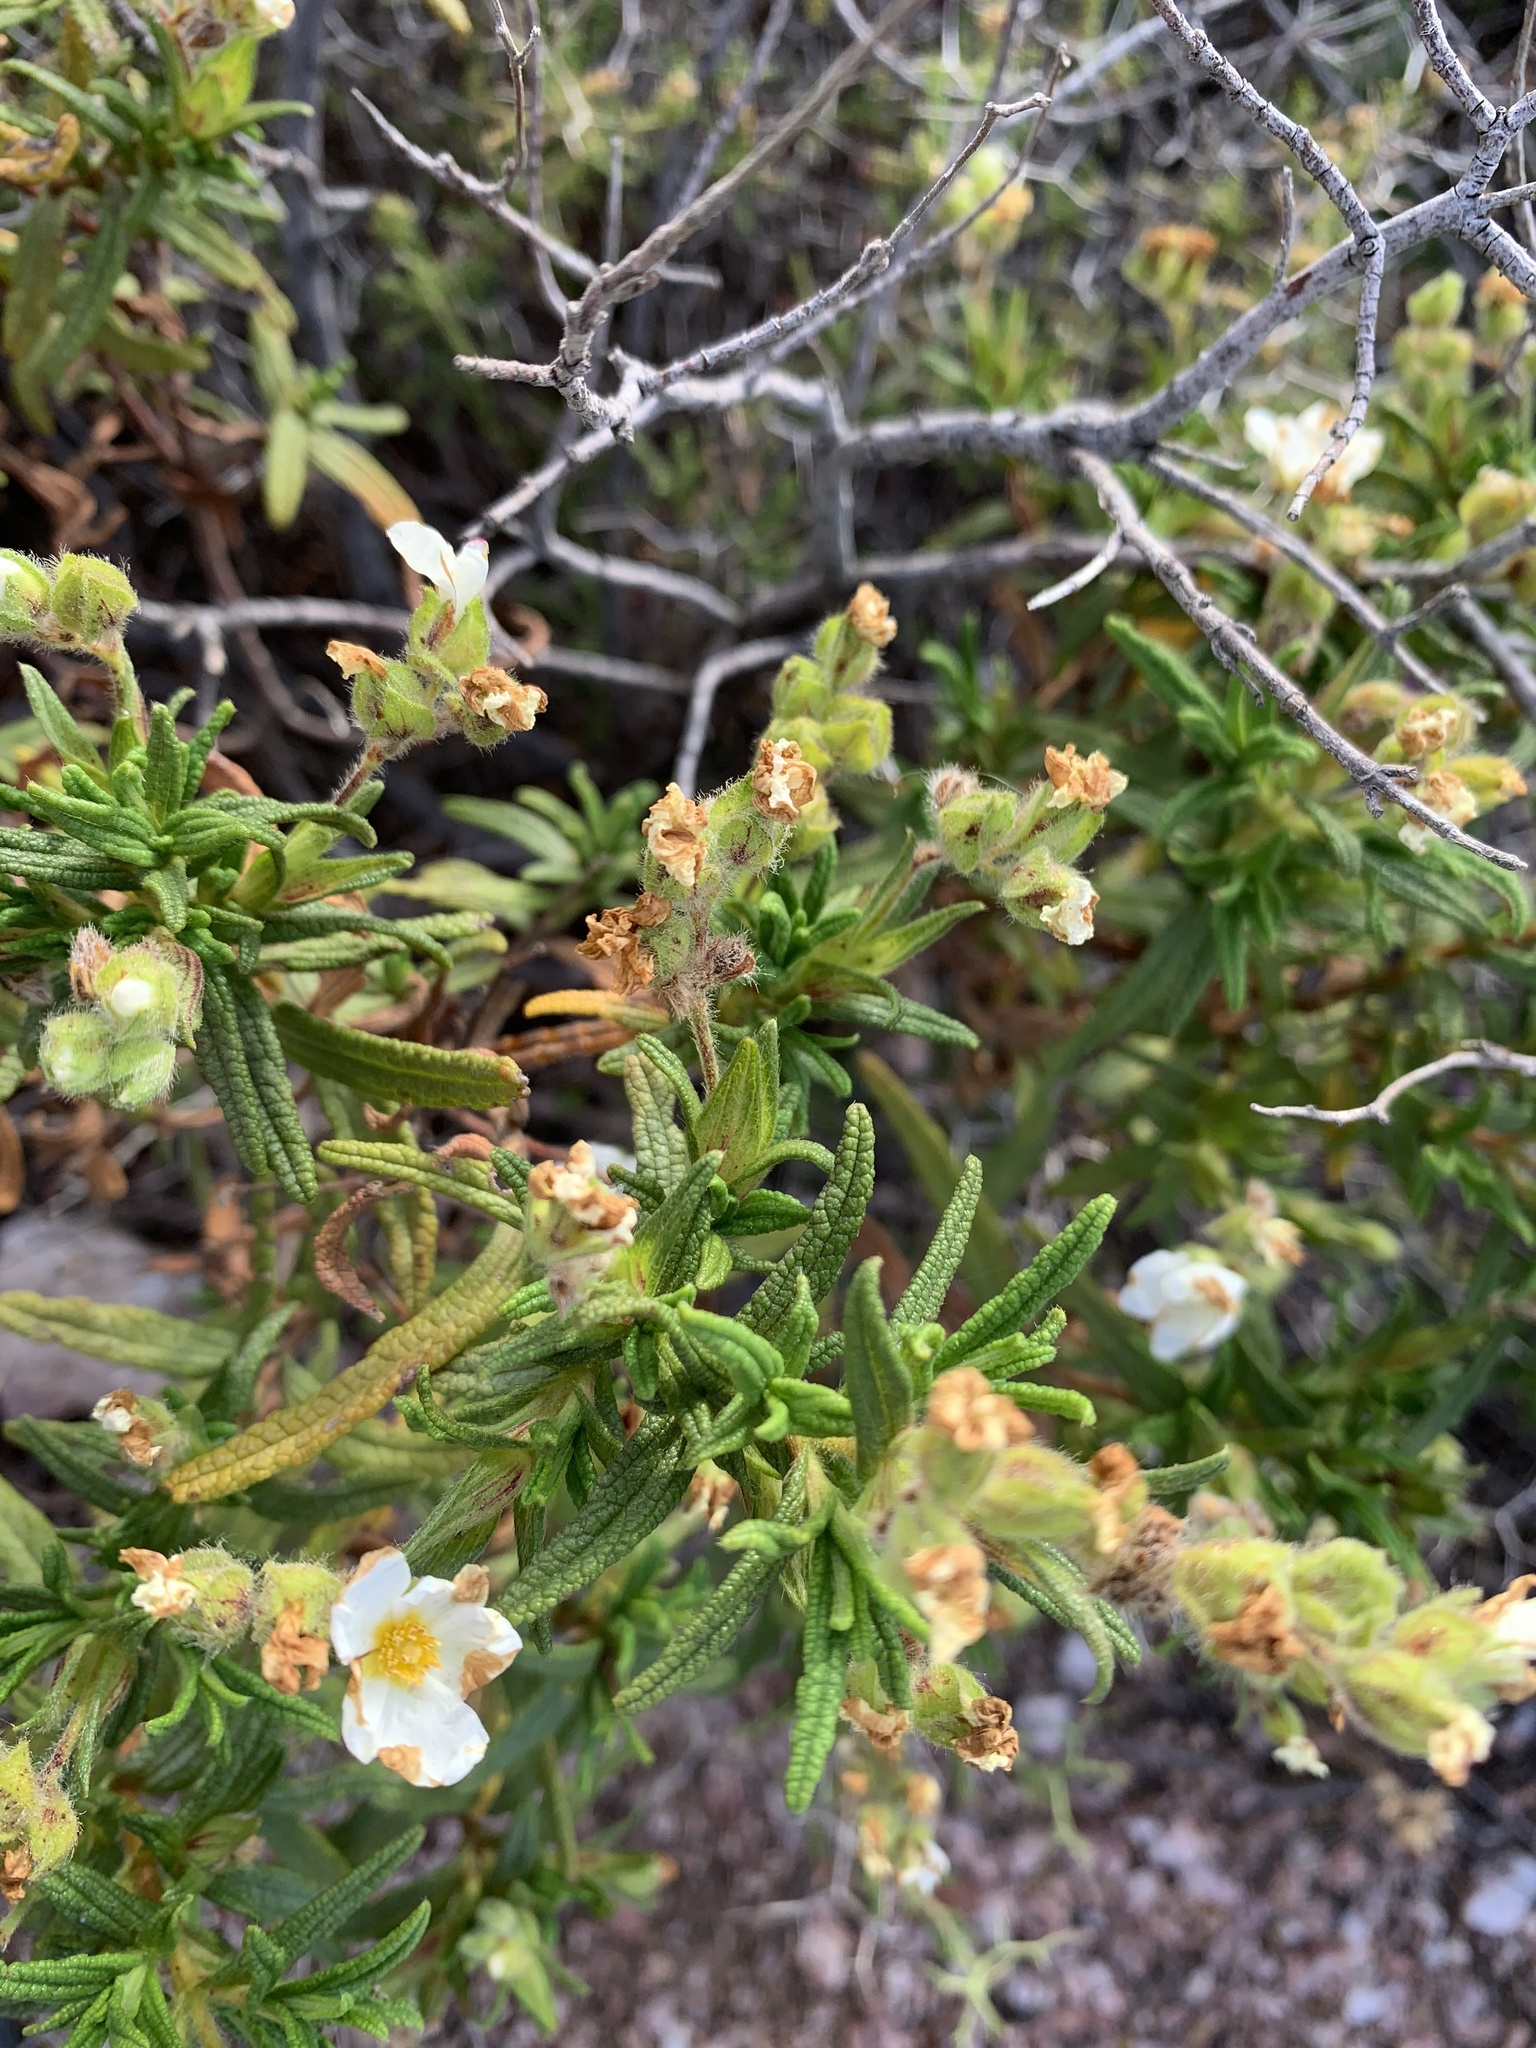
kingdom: Plantae
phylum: Tracheophyta
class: Magnoliopsida
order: Malvales
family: Cistaceae
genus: Cistus
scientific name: Cistus monspeliensis
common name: Montpelier cistus
